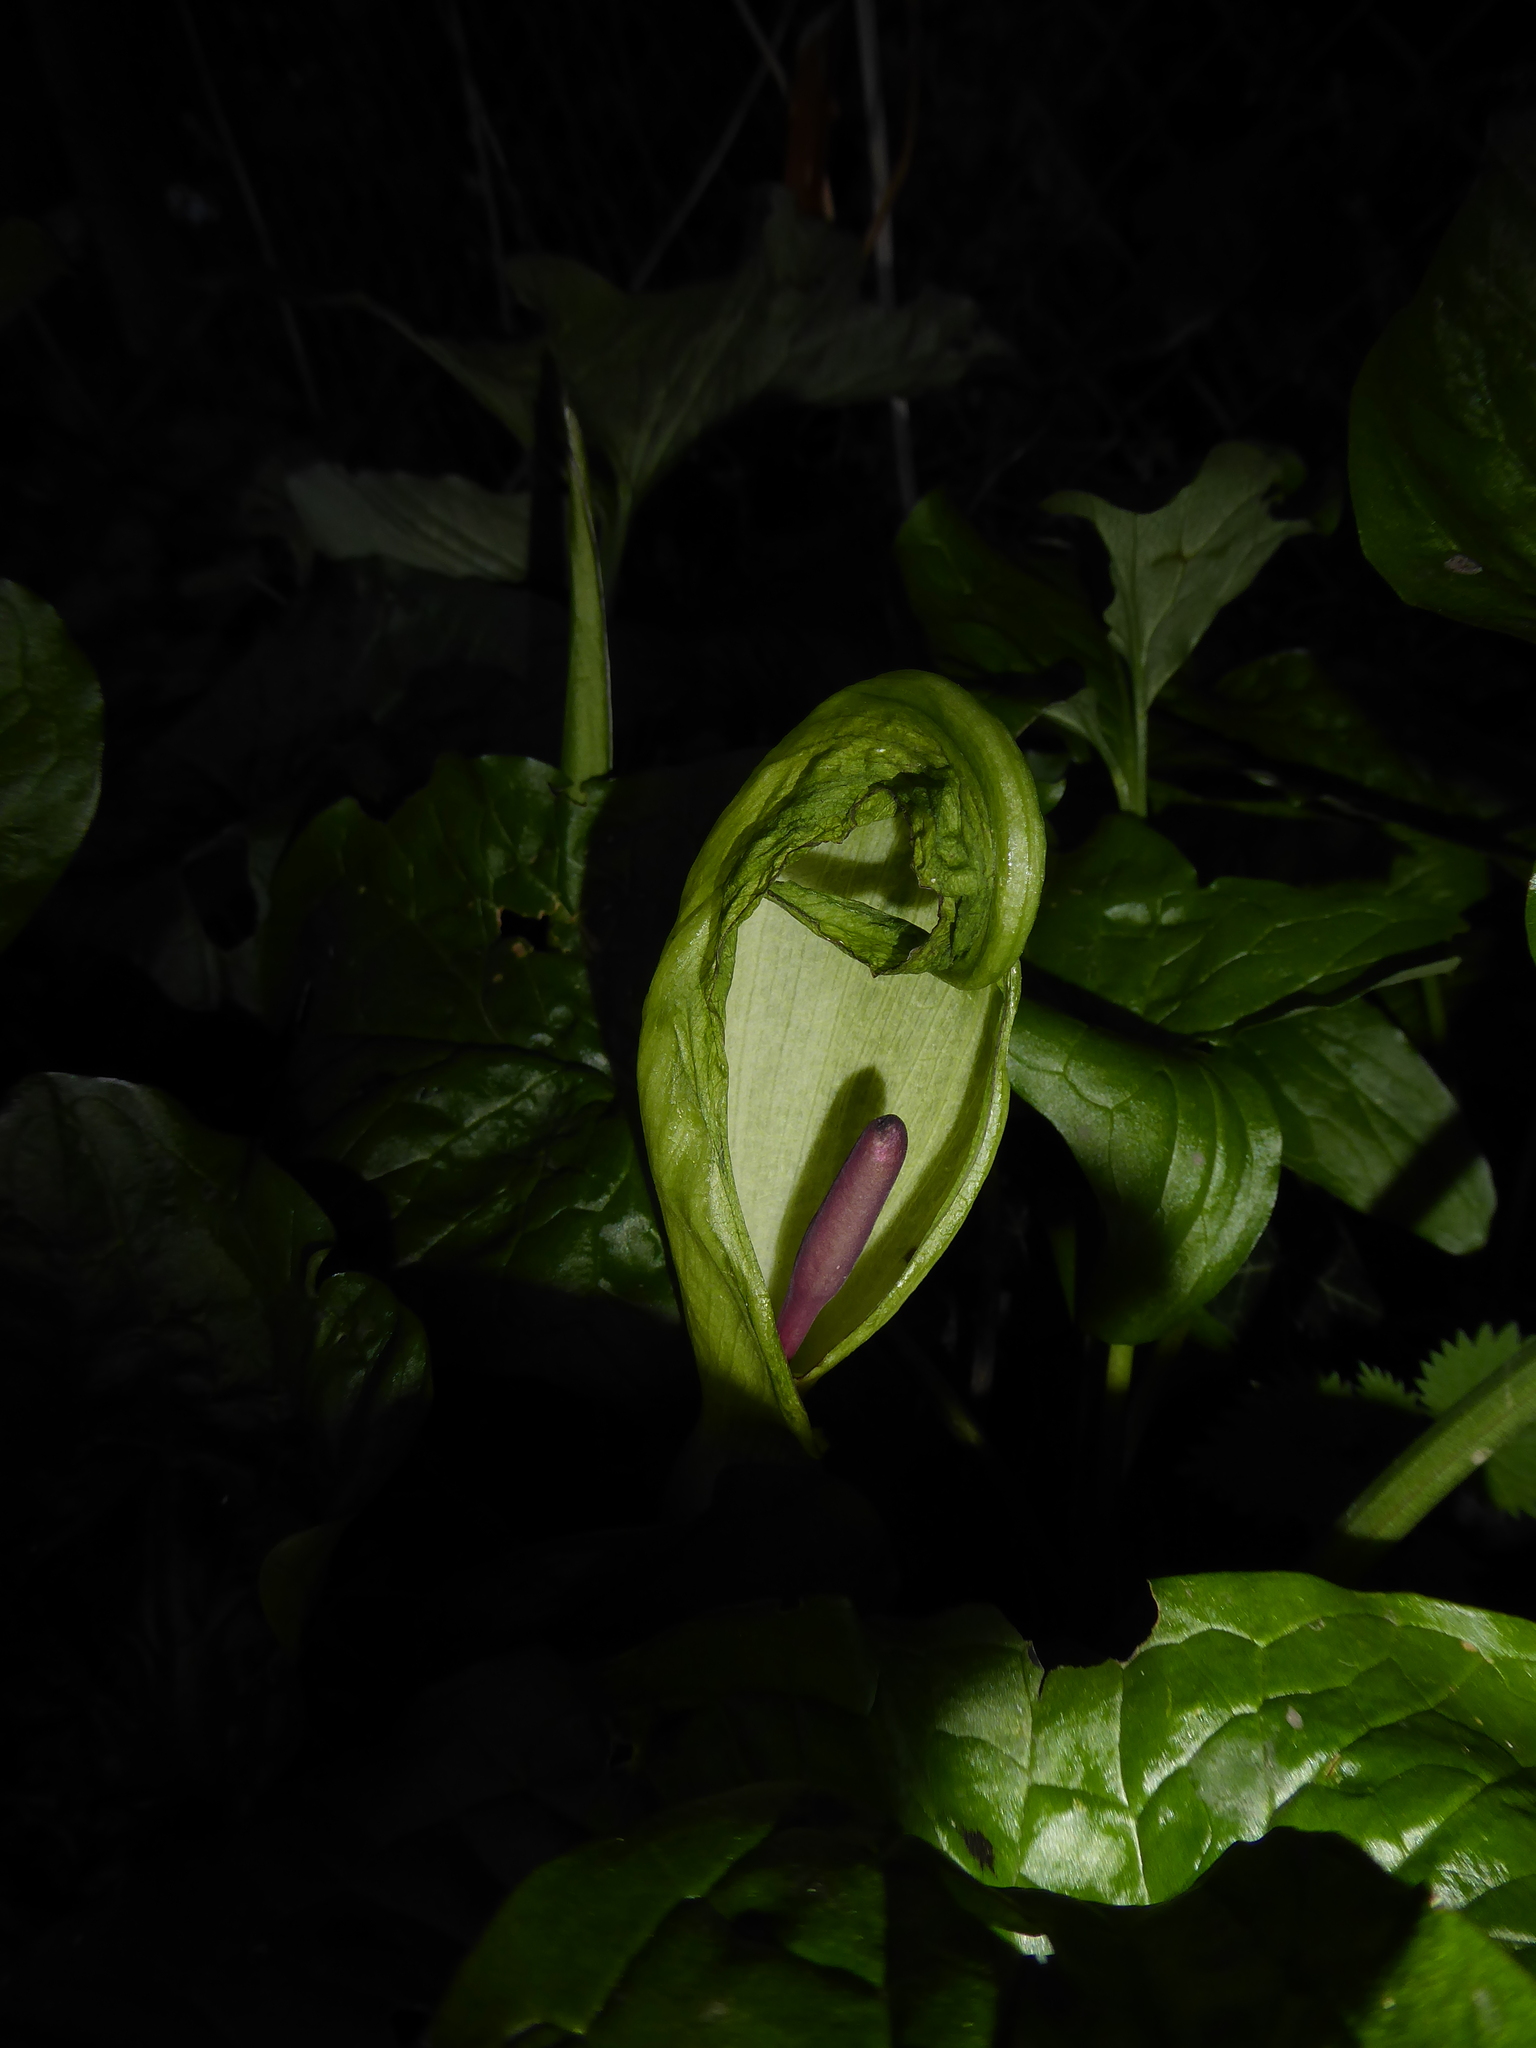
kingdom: Plantae
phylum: Tracheophyta
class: Liliopsida
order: Alismatales
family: Araceae
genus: Arum
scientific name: Arum maculatum
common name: Lords-and-ladies
